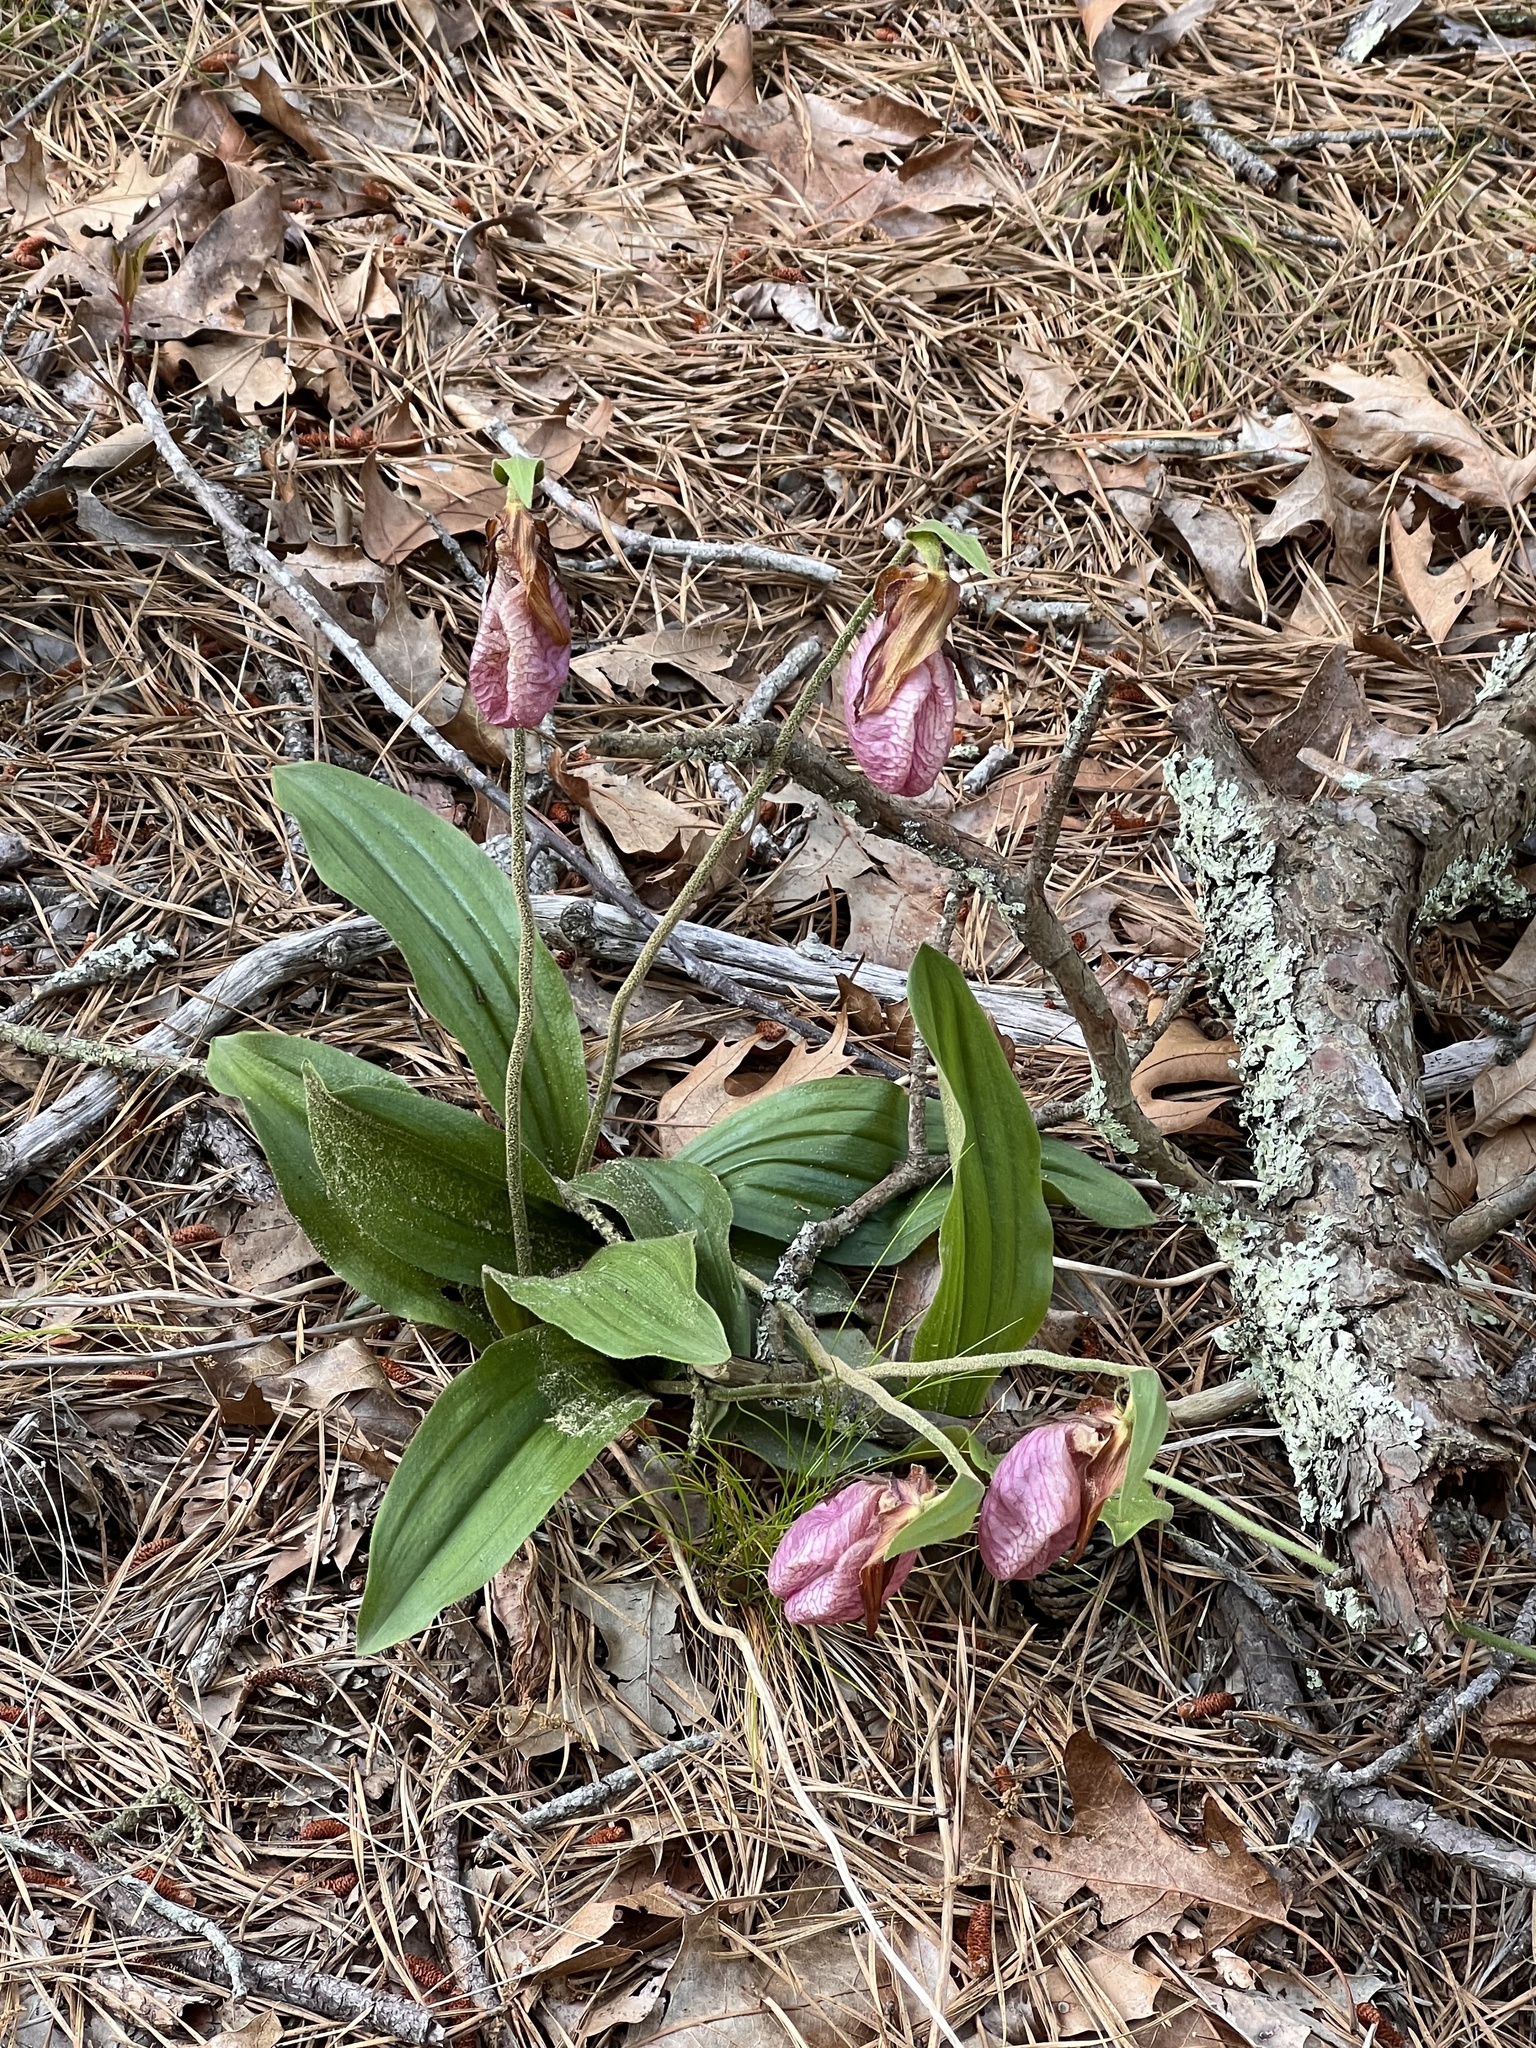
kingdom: Plantae
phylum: Tracheophyta
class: Liliopsida
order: Asparagales
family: Orchidaceae
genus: Cypripedium
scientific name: Cypripedium acaule
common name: Pink lady's-slipper
